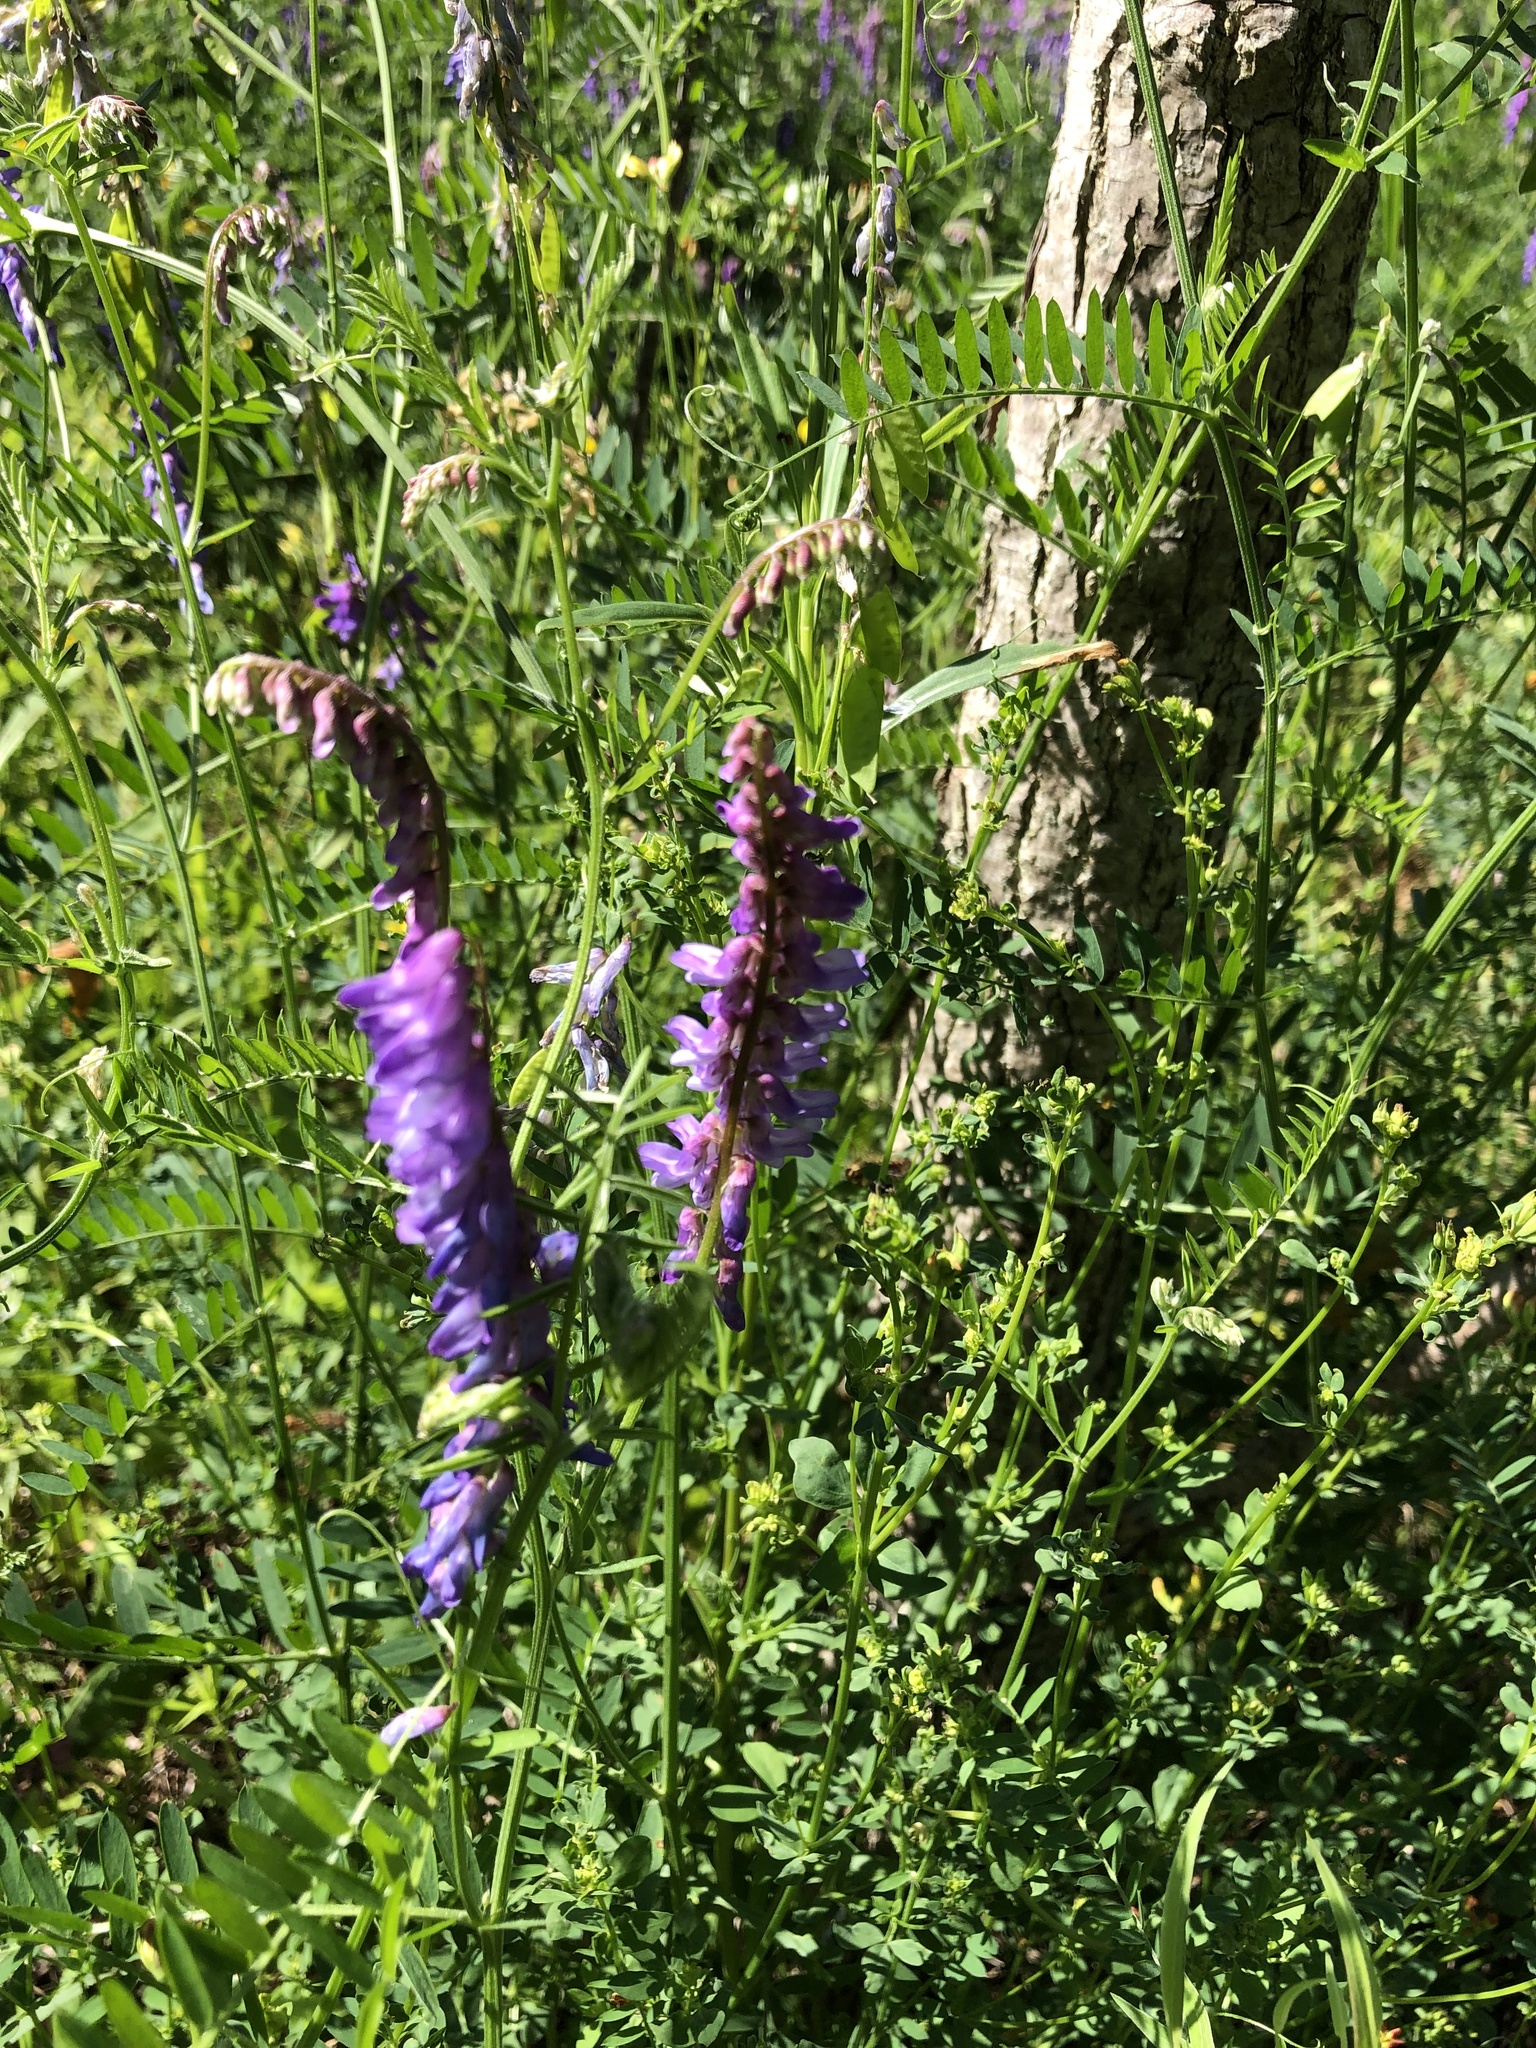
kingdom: Plantae
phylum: Tracheophyta
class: Magnoliopsida
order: Fabales
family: Fabaceae
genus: Vicia
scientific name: Vicia cracca
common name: Bird vetch
